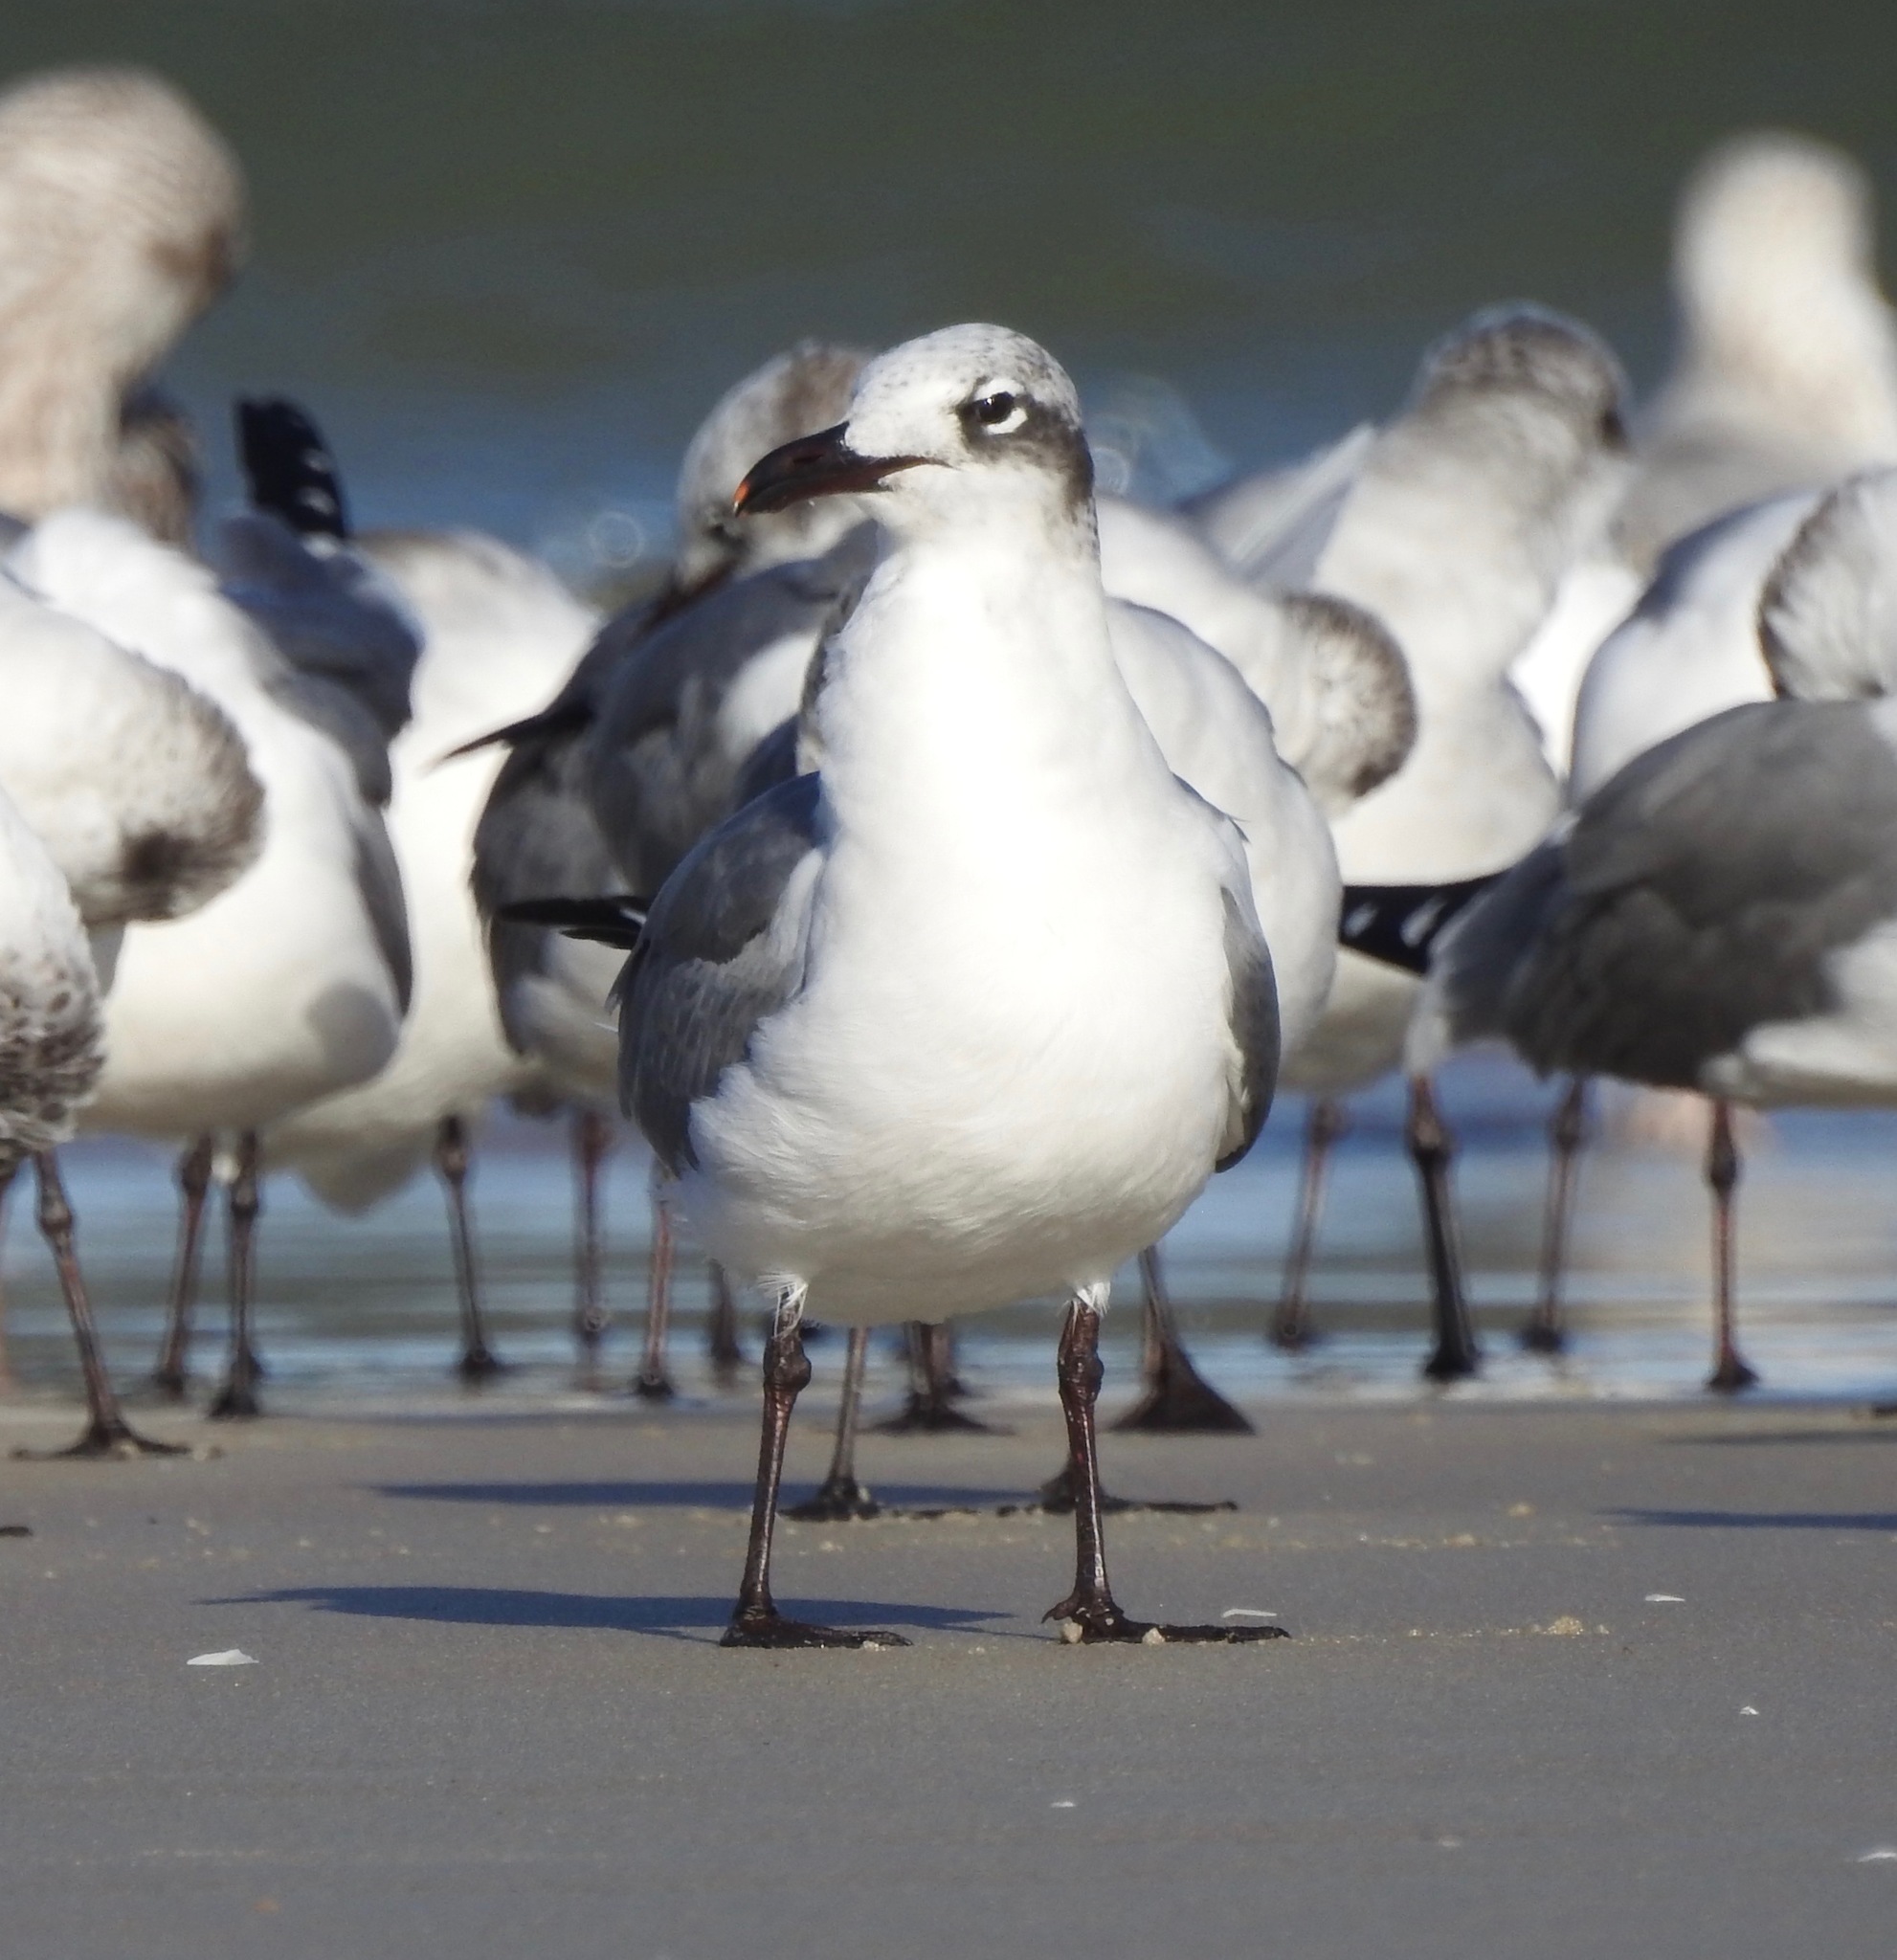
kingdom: Animalia
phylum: Chordata
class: Aves
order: Charadriiformes
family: Laridae
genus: Leucophaeus
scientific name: Leucophaeus atricilla
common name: Laughing gull
